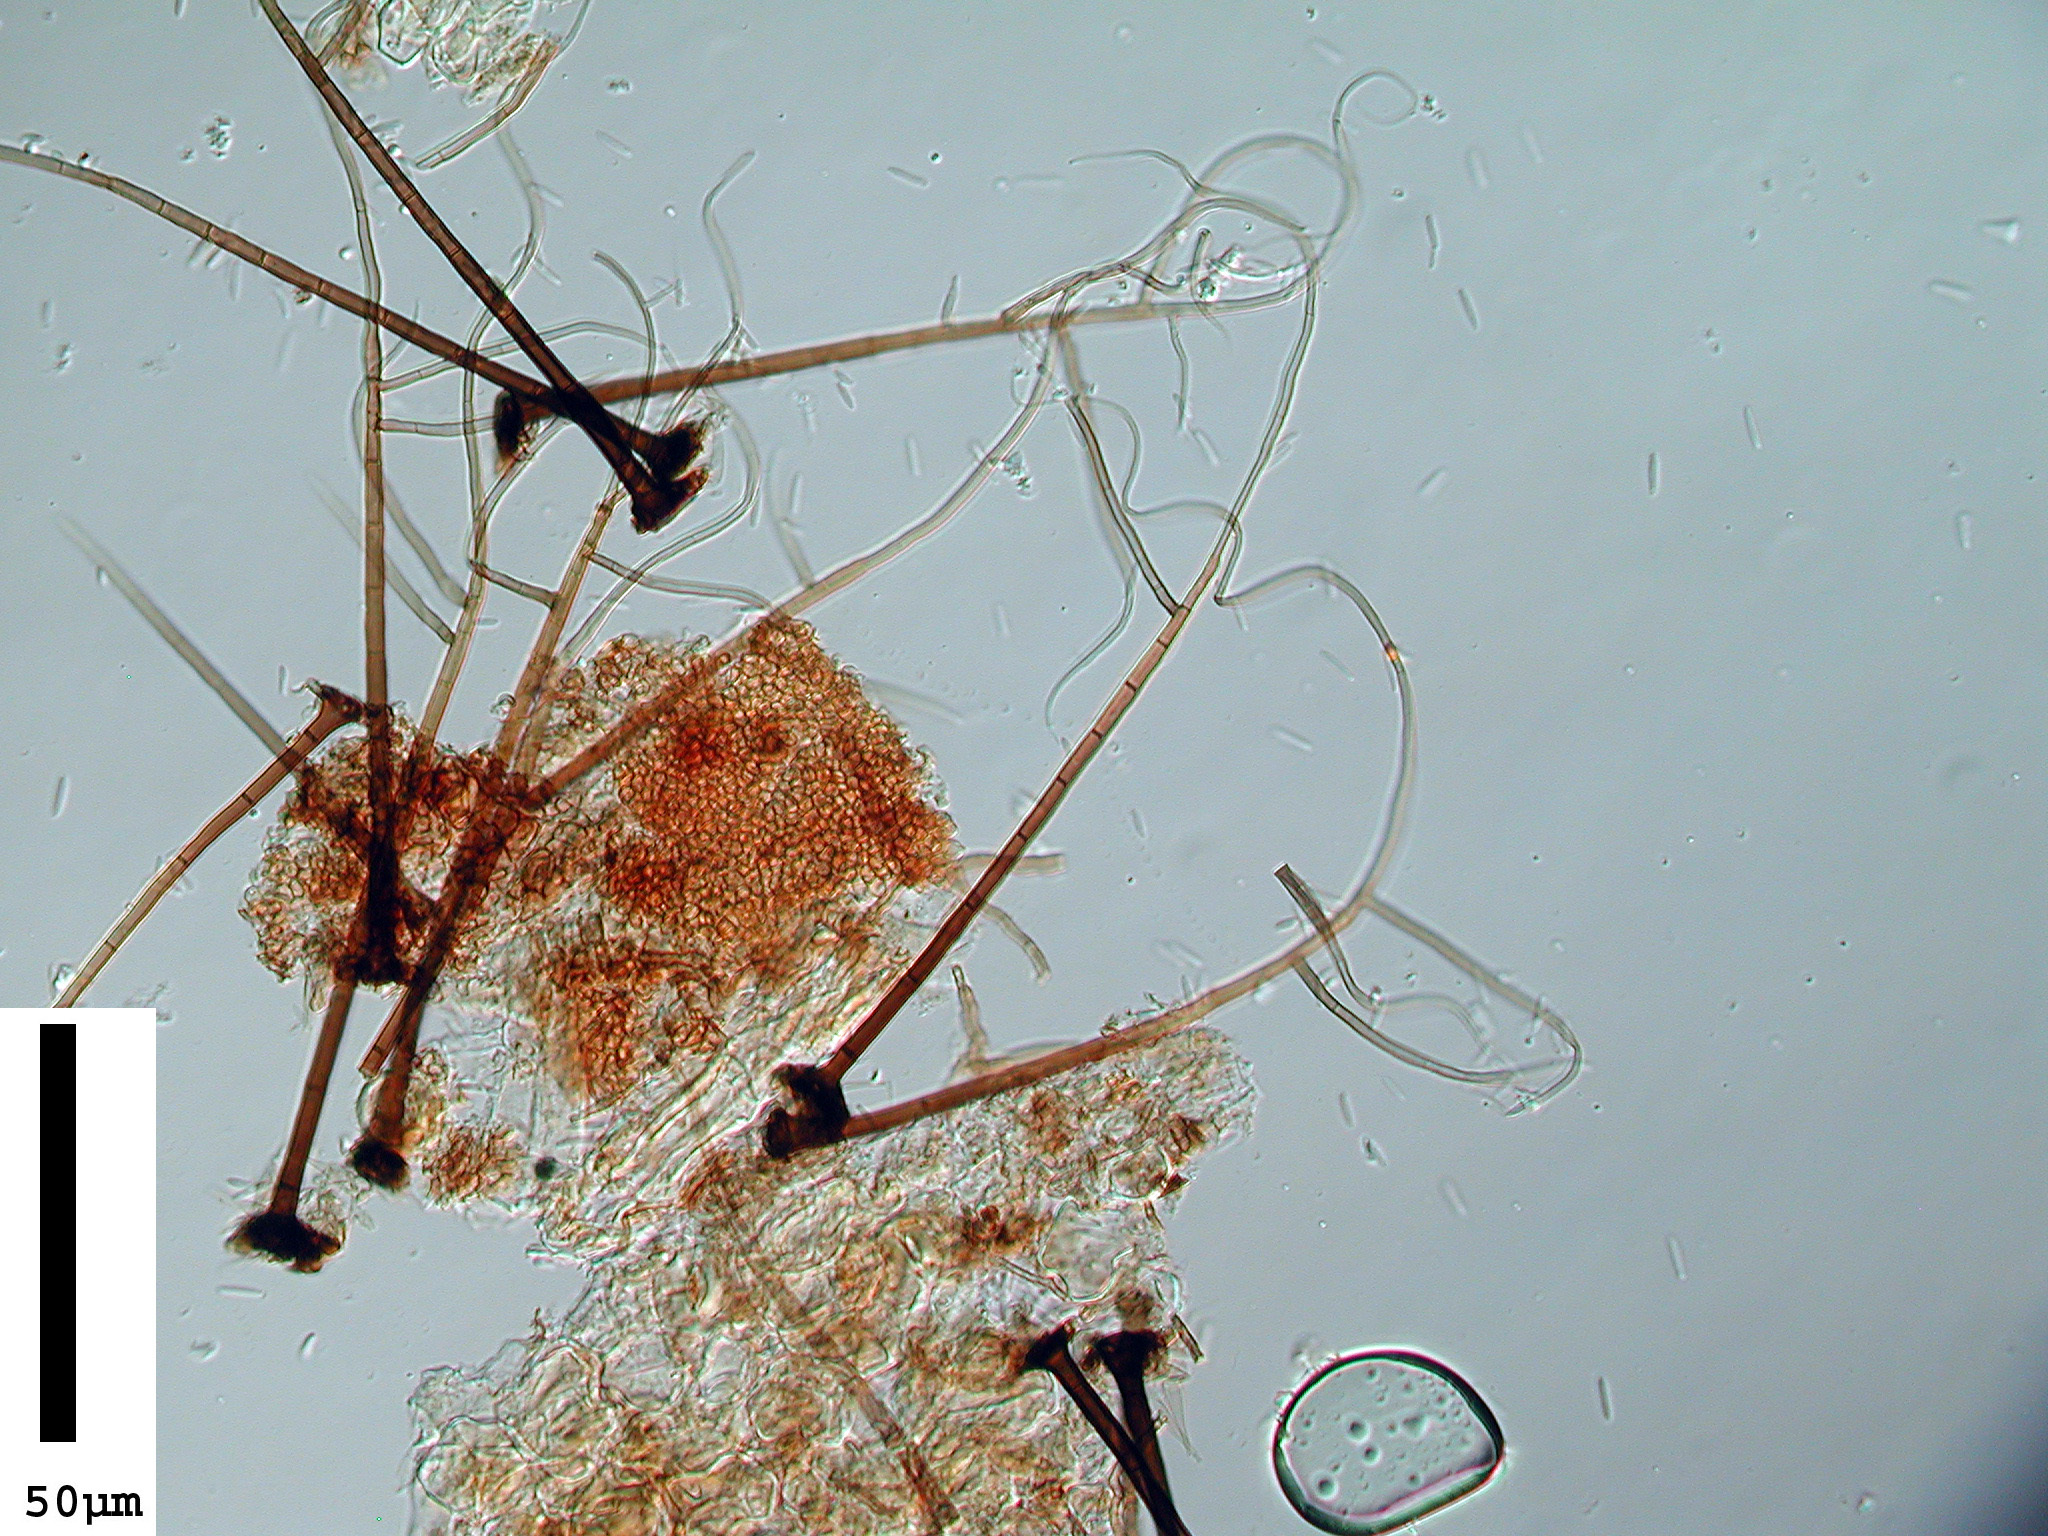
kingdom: Fungi
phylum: Ascomycota
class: Sordariomycetes
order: Xylariales
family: Microdochiaceae
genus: Gyrothrix
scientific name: Gyrothrix citricola
